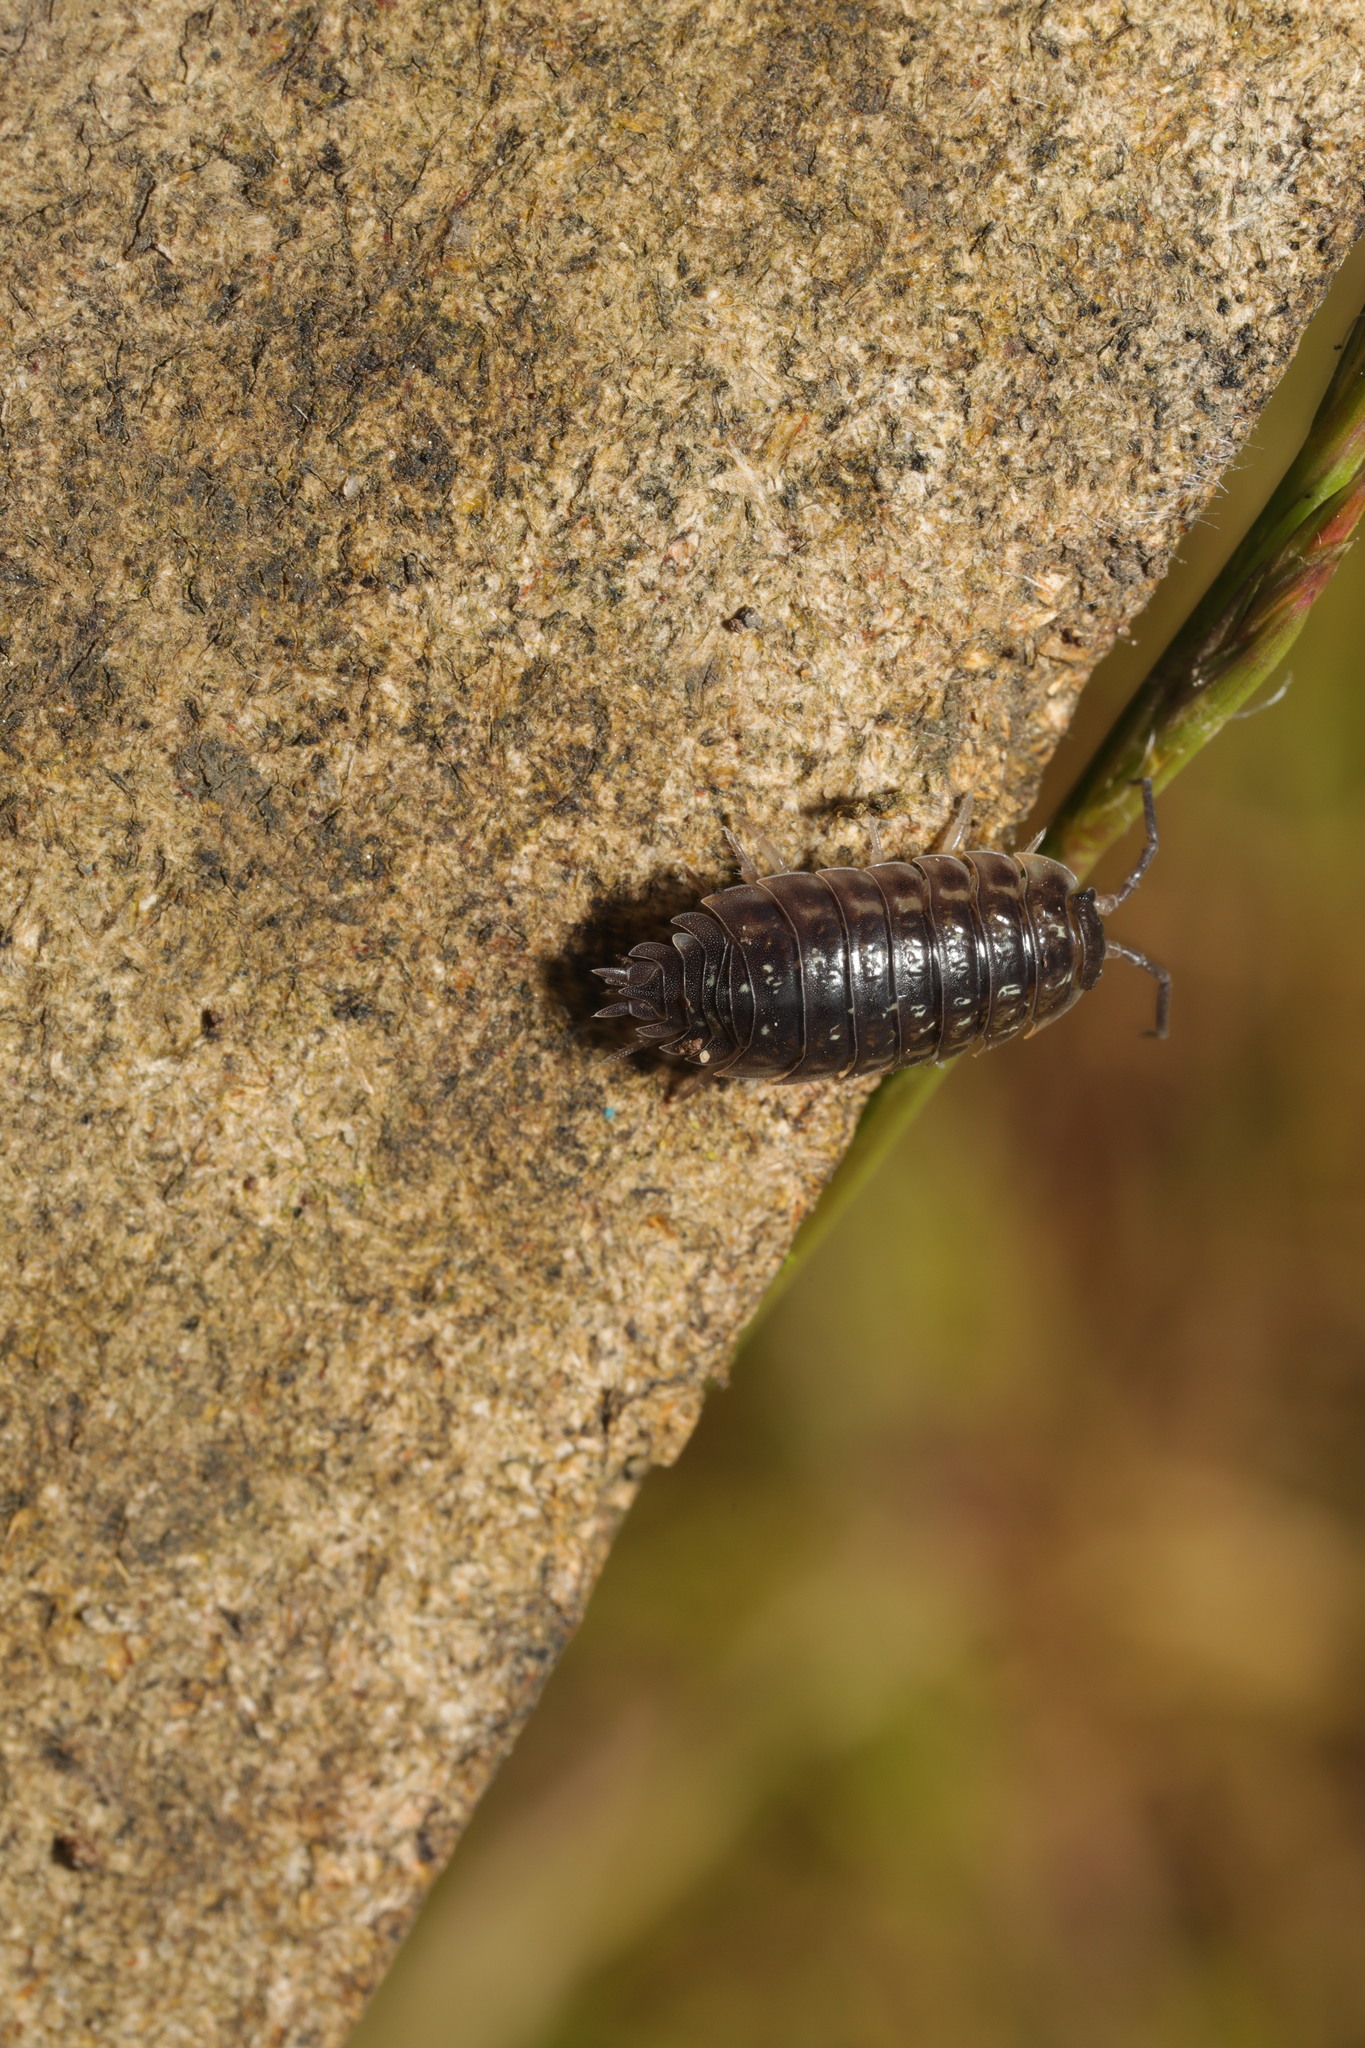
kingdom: Animalia
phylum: Arthropoda
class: Malacostraca
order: Isopoda
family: Oniscidae
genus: Oniscus
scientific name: Oniscus asellus
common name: Common shiny woodlouse
